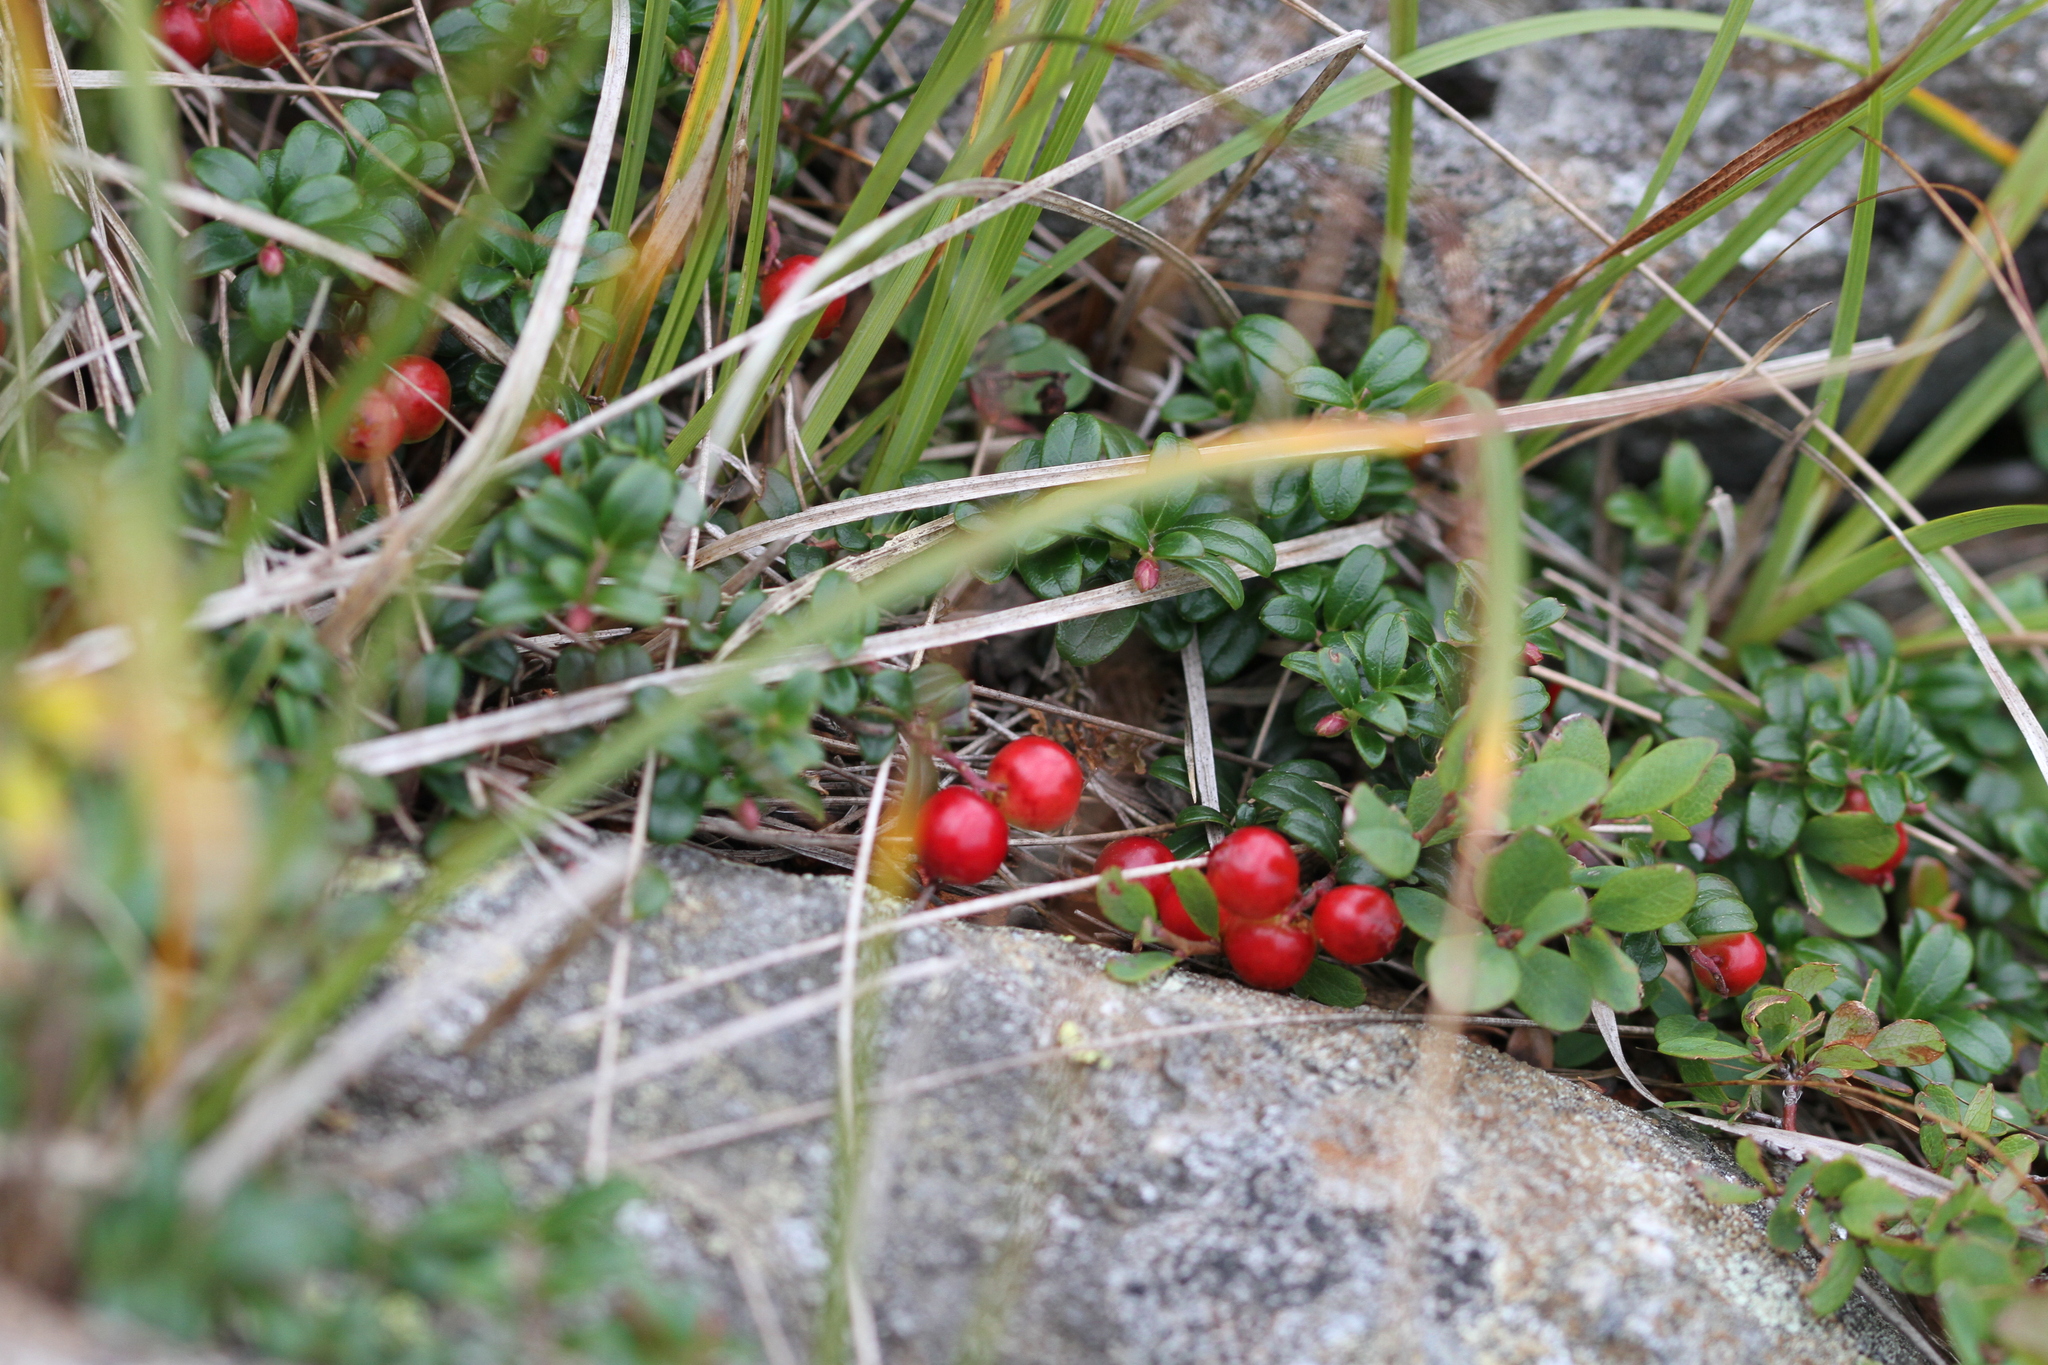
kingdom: Plantae
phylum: Tracheophyta
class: Magnoliopsida
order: Ericales
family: Ericaceae
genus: Vaccinium
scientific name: Vaccinium vitis-idaea
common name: Cowberry
